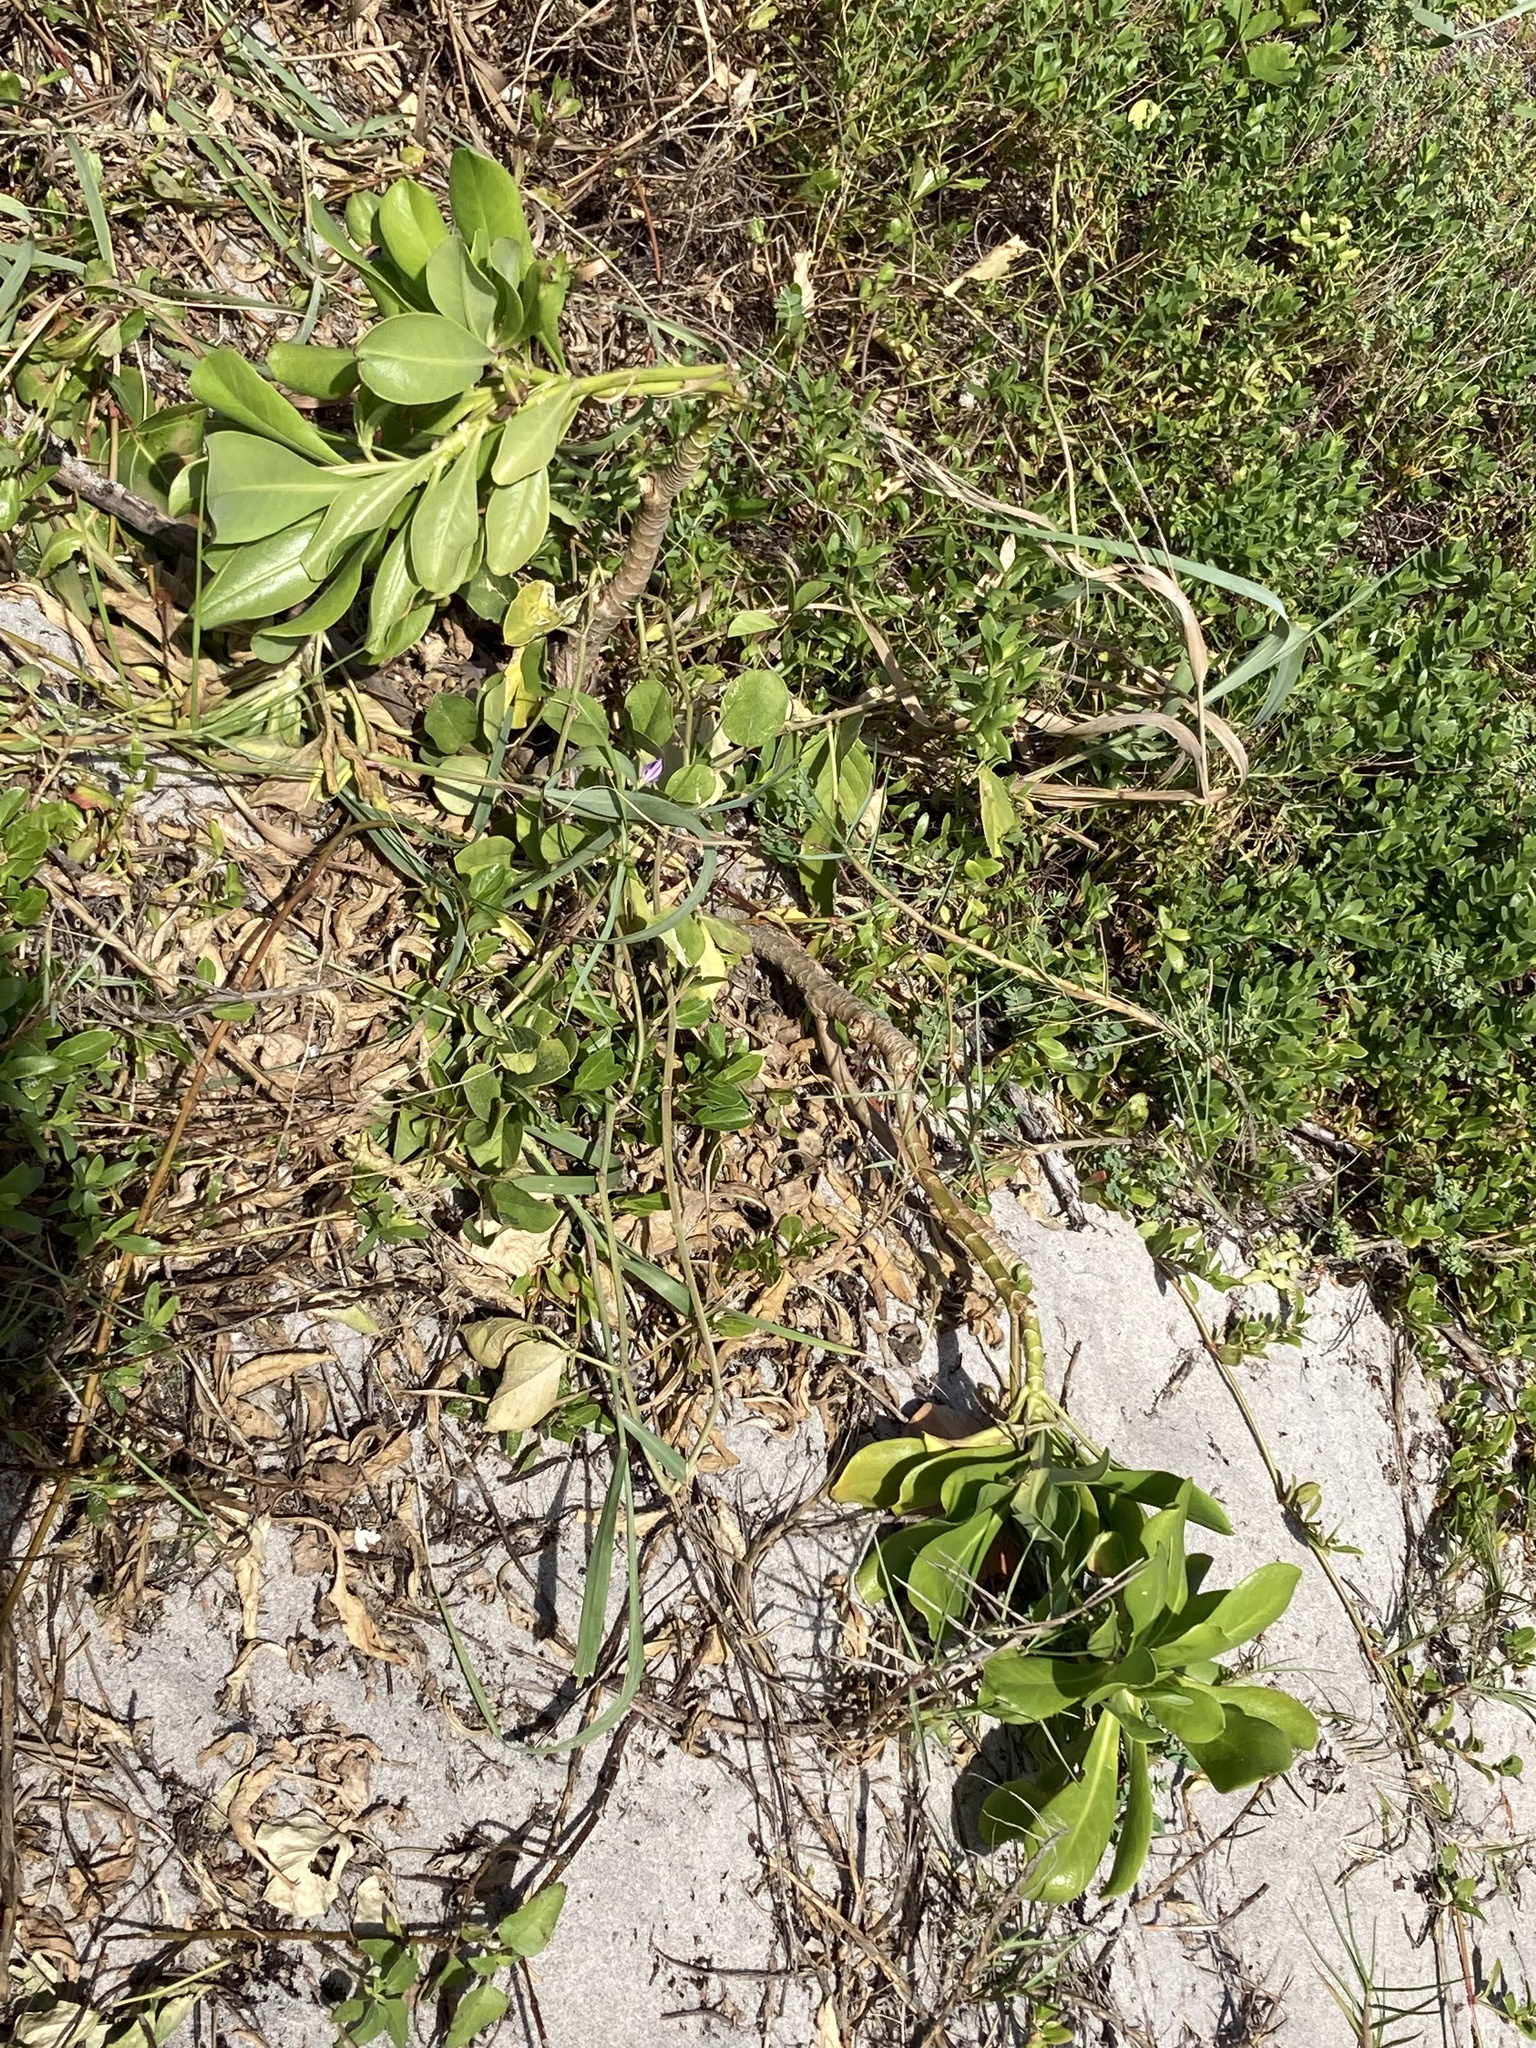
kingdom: Plantae
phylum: Tracheophyta
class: Magnoliopsida
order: Asterales
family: Goodeniaceae
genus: Scaevola
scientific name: Scaevola taccada
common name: Sea lettucetree
